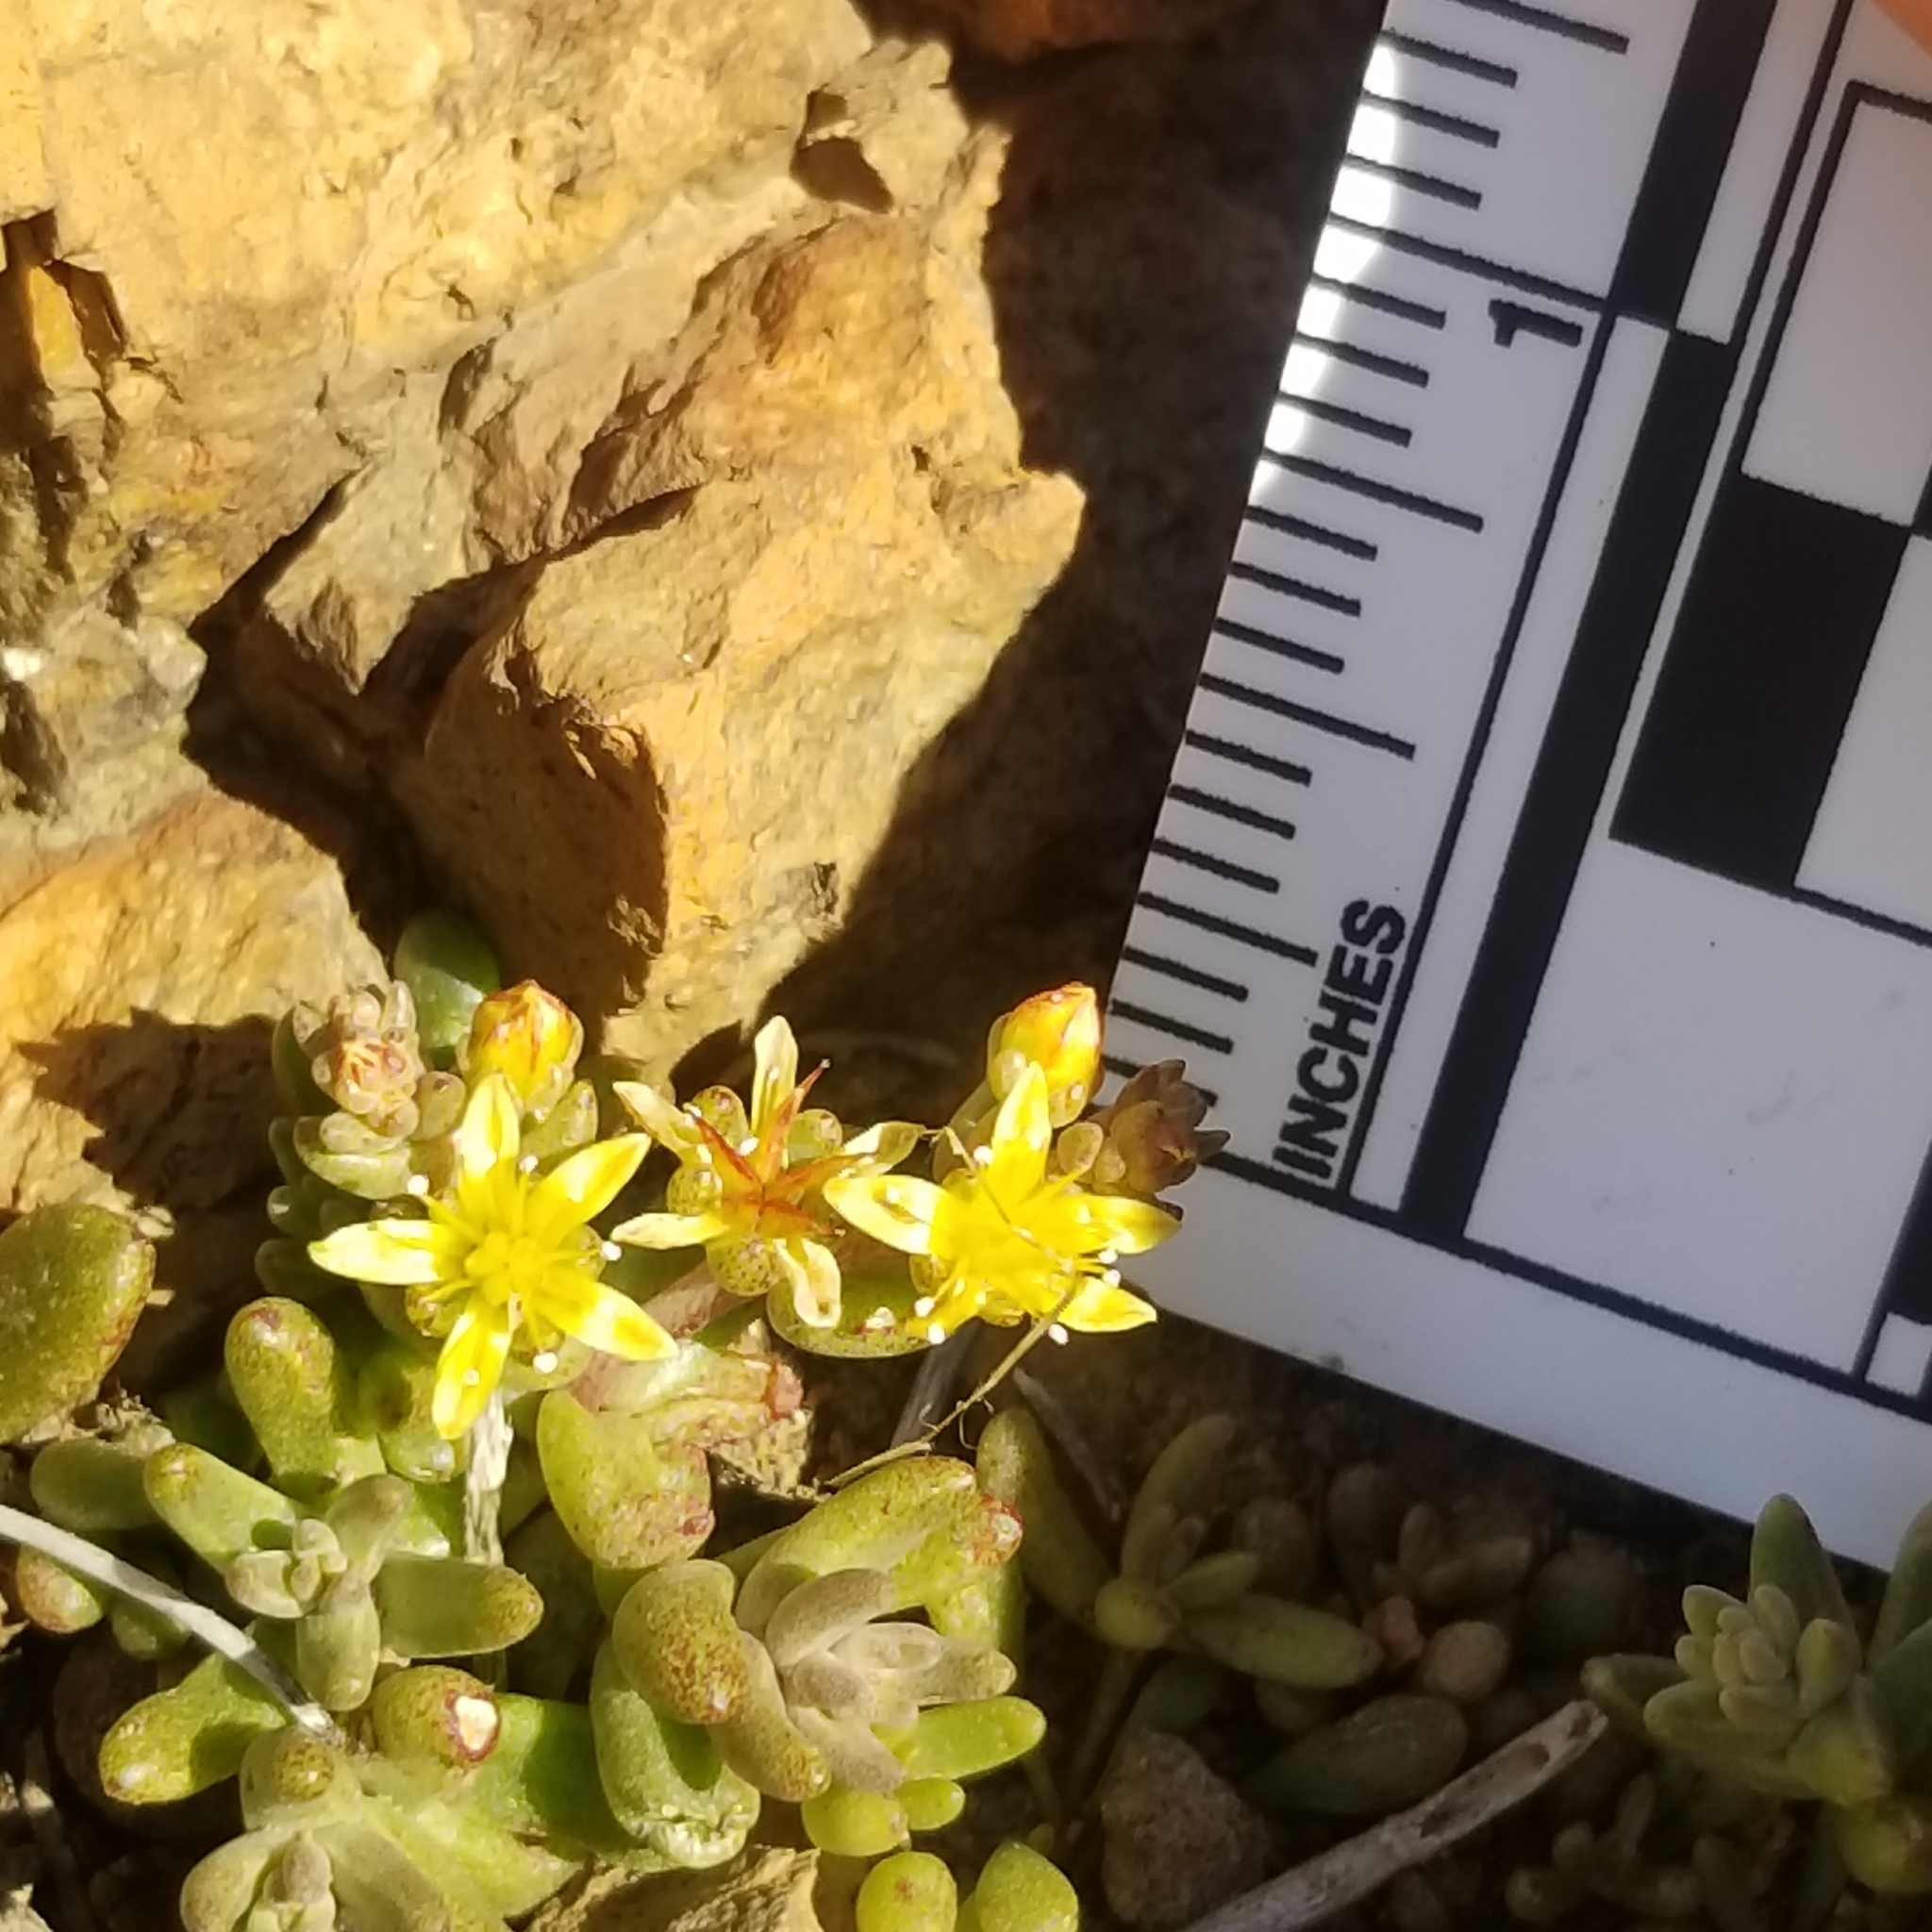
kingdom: Plantae
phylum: Tracheophyta
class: Magnoliopsida
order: Saxifragales
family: Crassulaceae
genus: Dudleya
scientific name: Dudleya variegata
